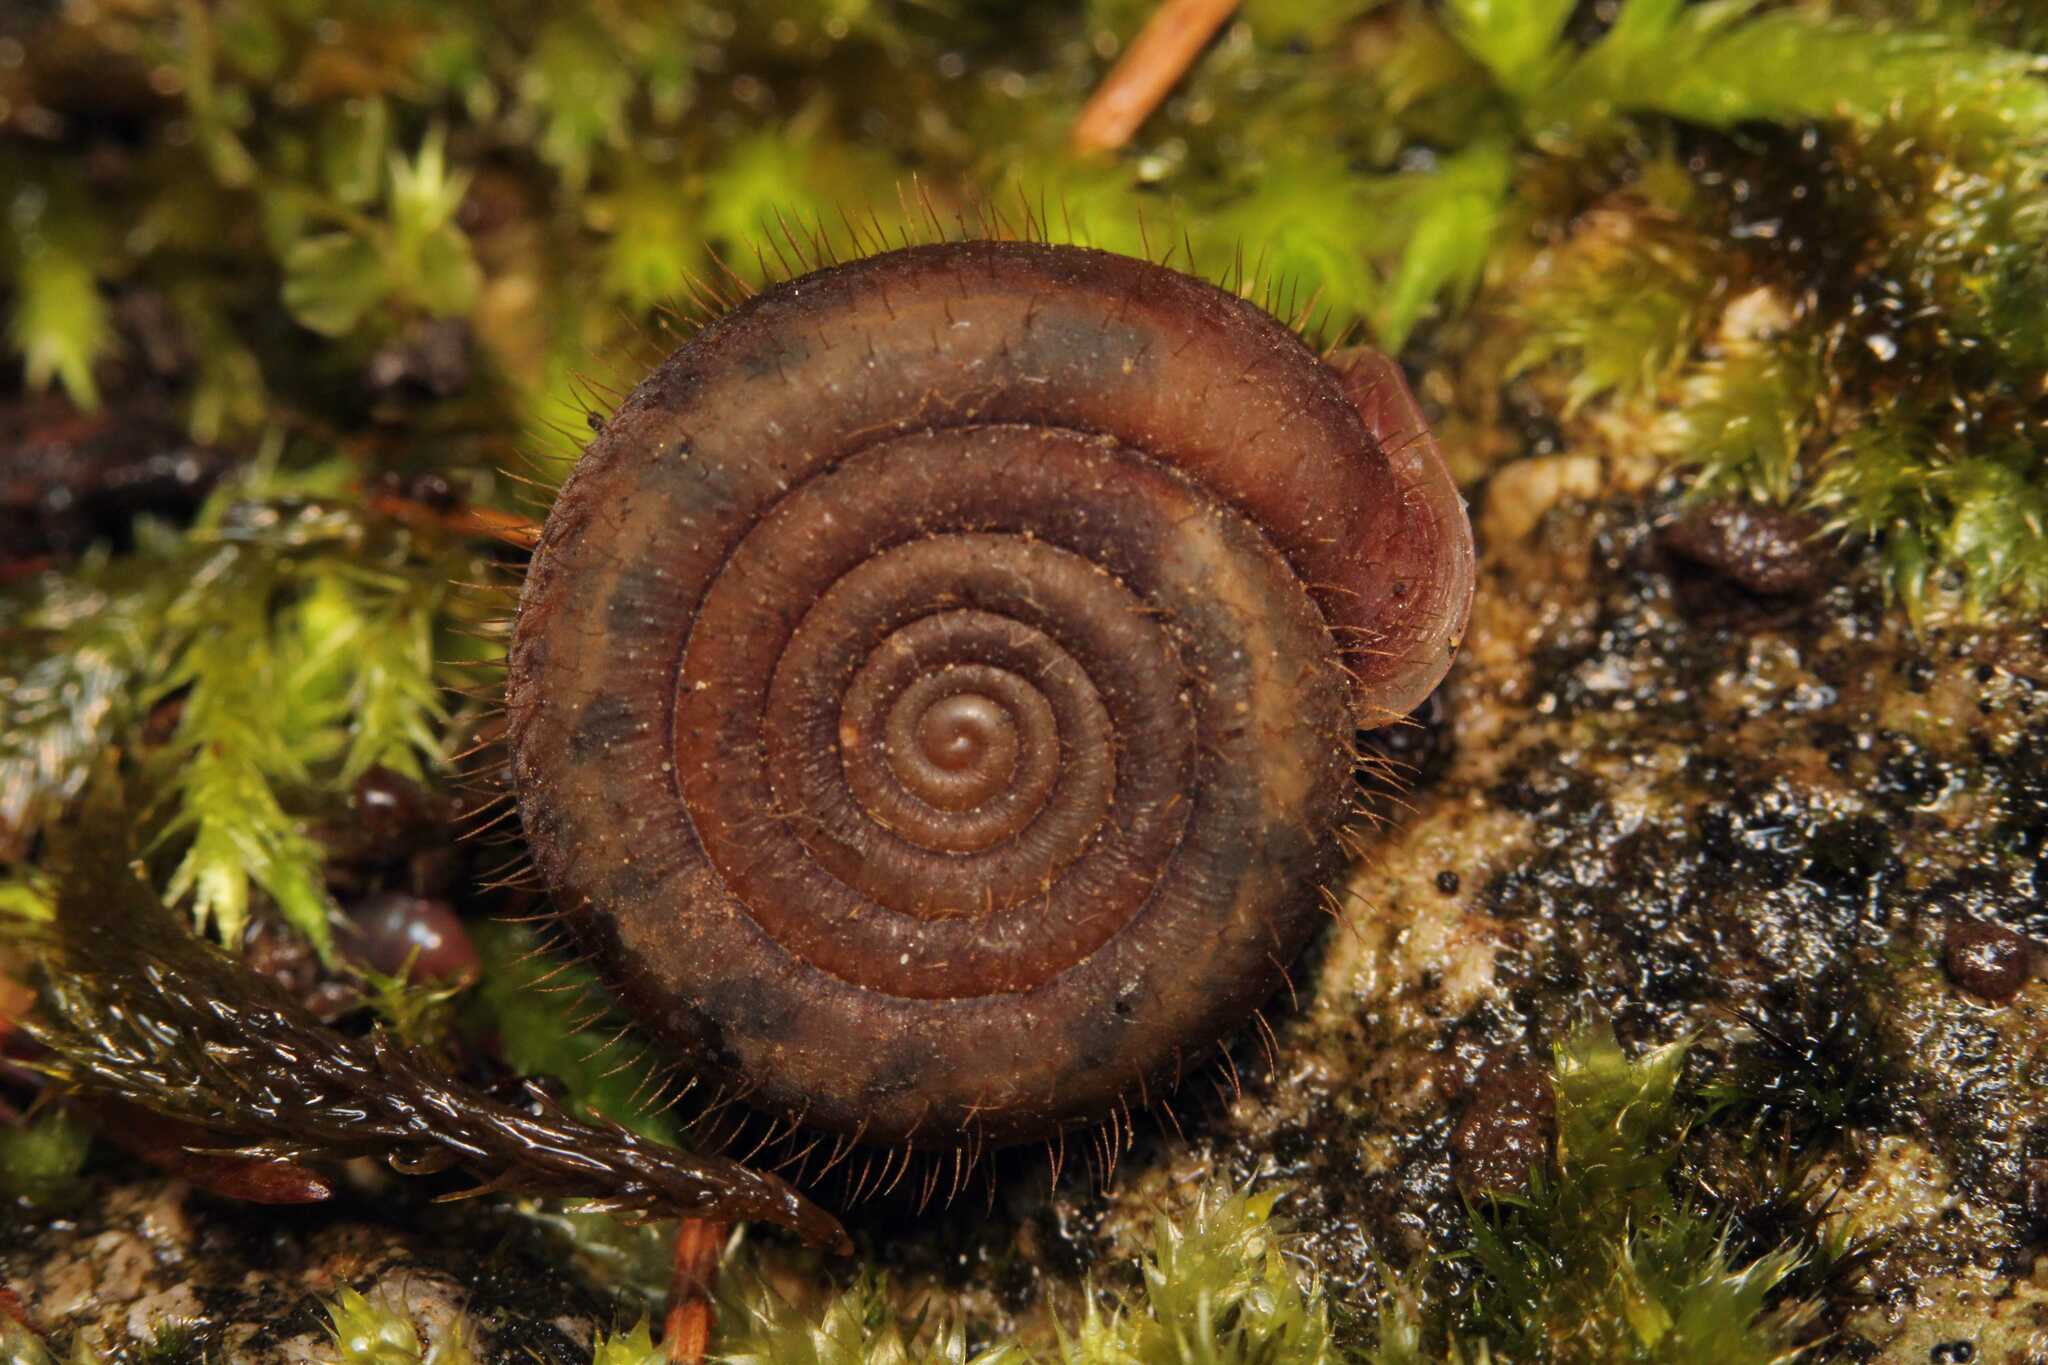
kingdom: Animalia
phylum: Mollusca
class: Gastropoda
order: Stylommatophora
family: Helicodontidae
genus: Helicodonta
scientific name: Helicodonta obvoluta
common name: Cheese snail
